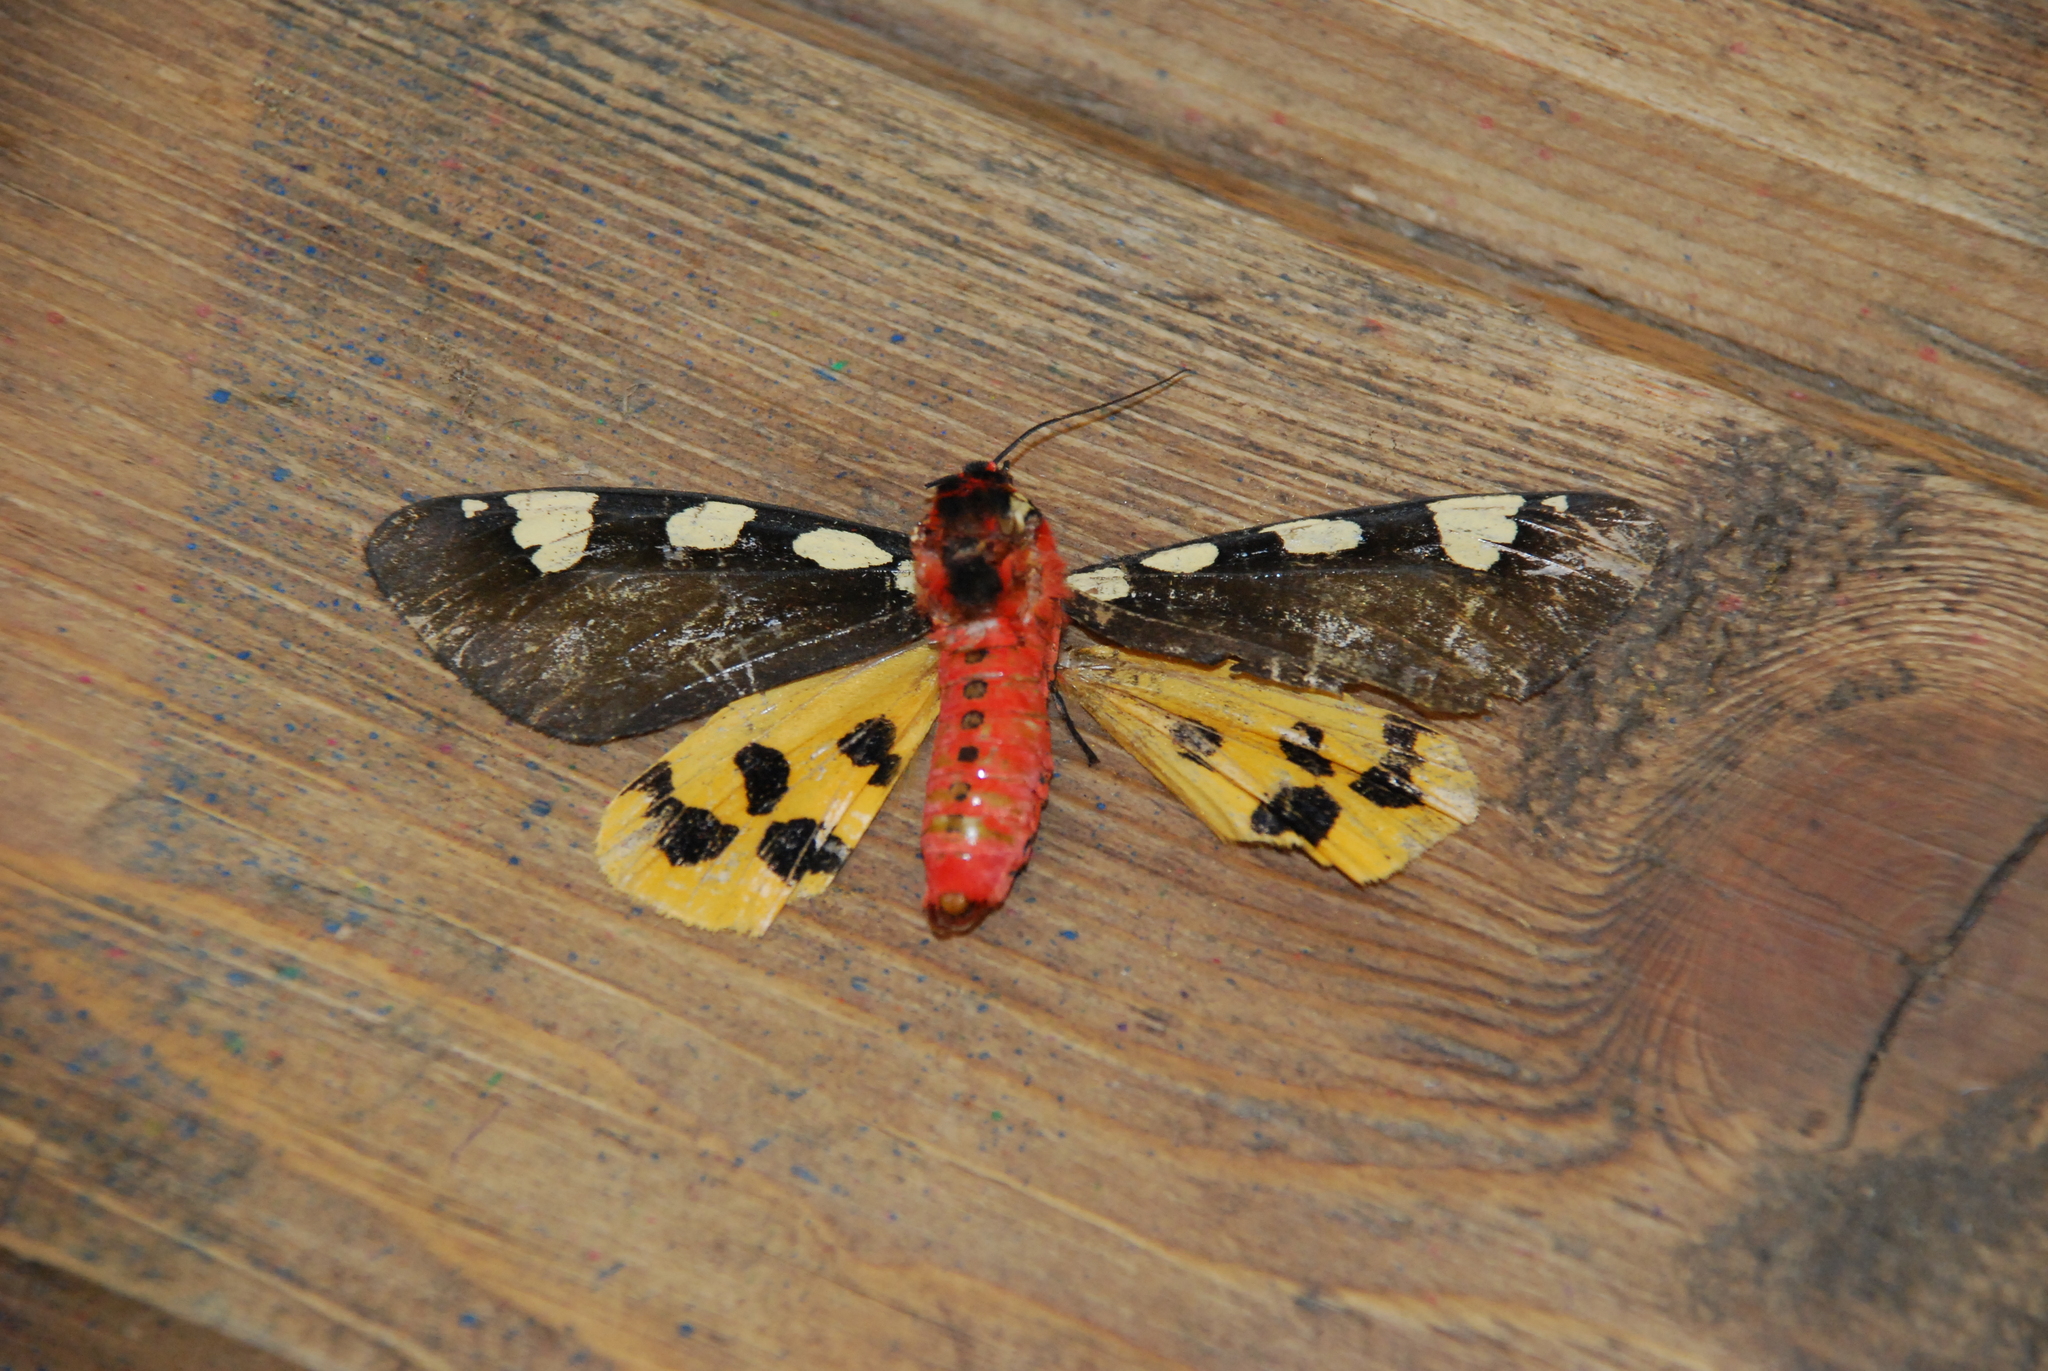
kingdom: Animalia
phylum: Arthropoda
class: Insecta
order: Lepidoptera
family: Erebidae
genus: Pericallia
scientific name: Pericallia matronula
